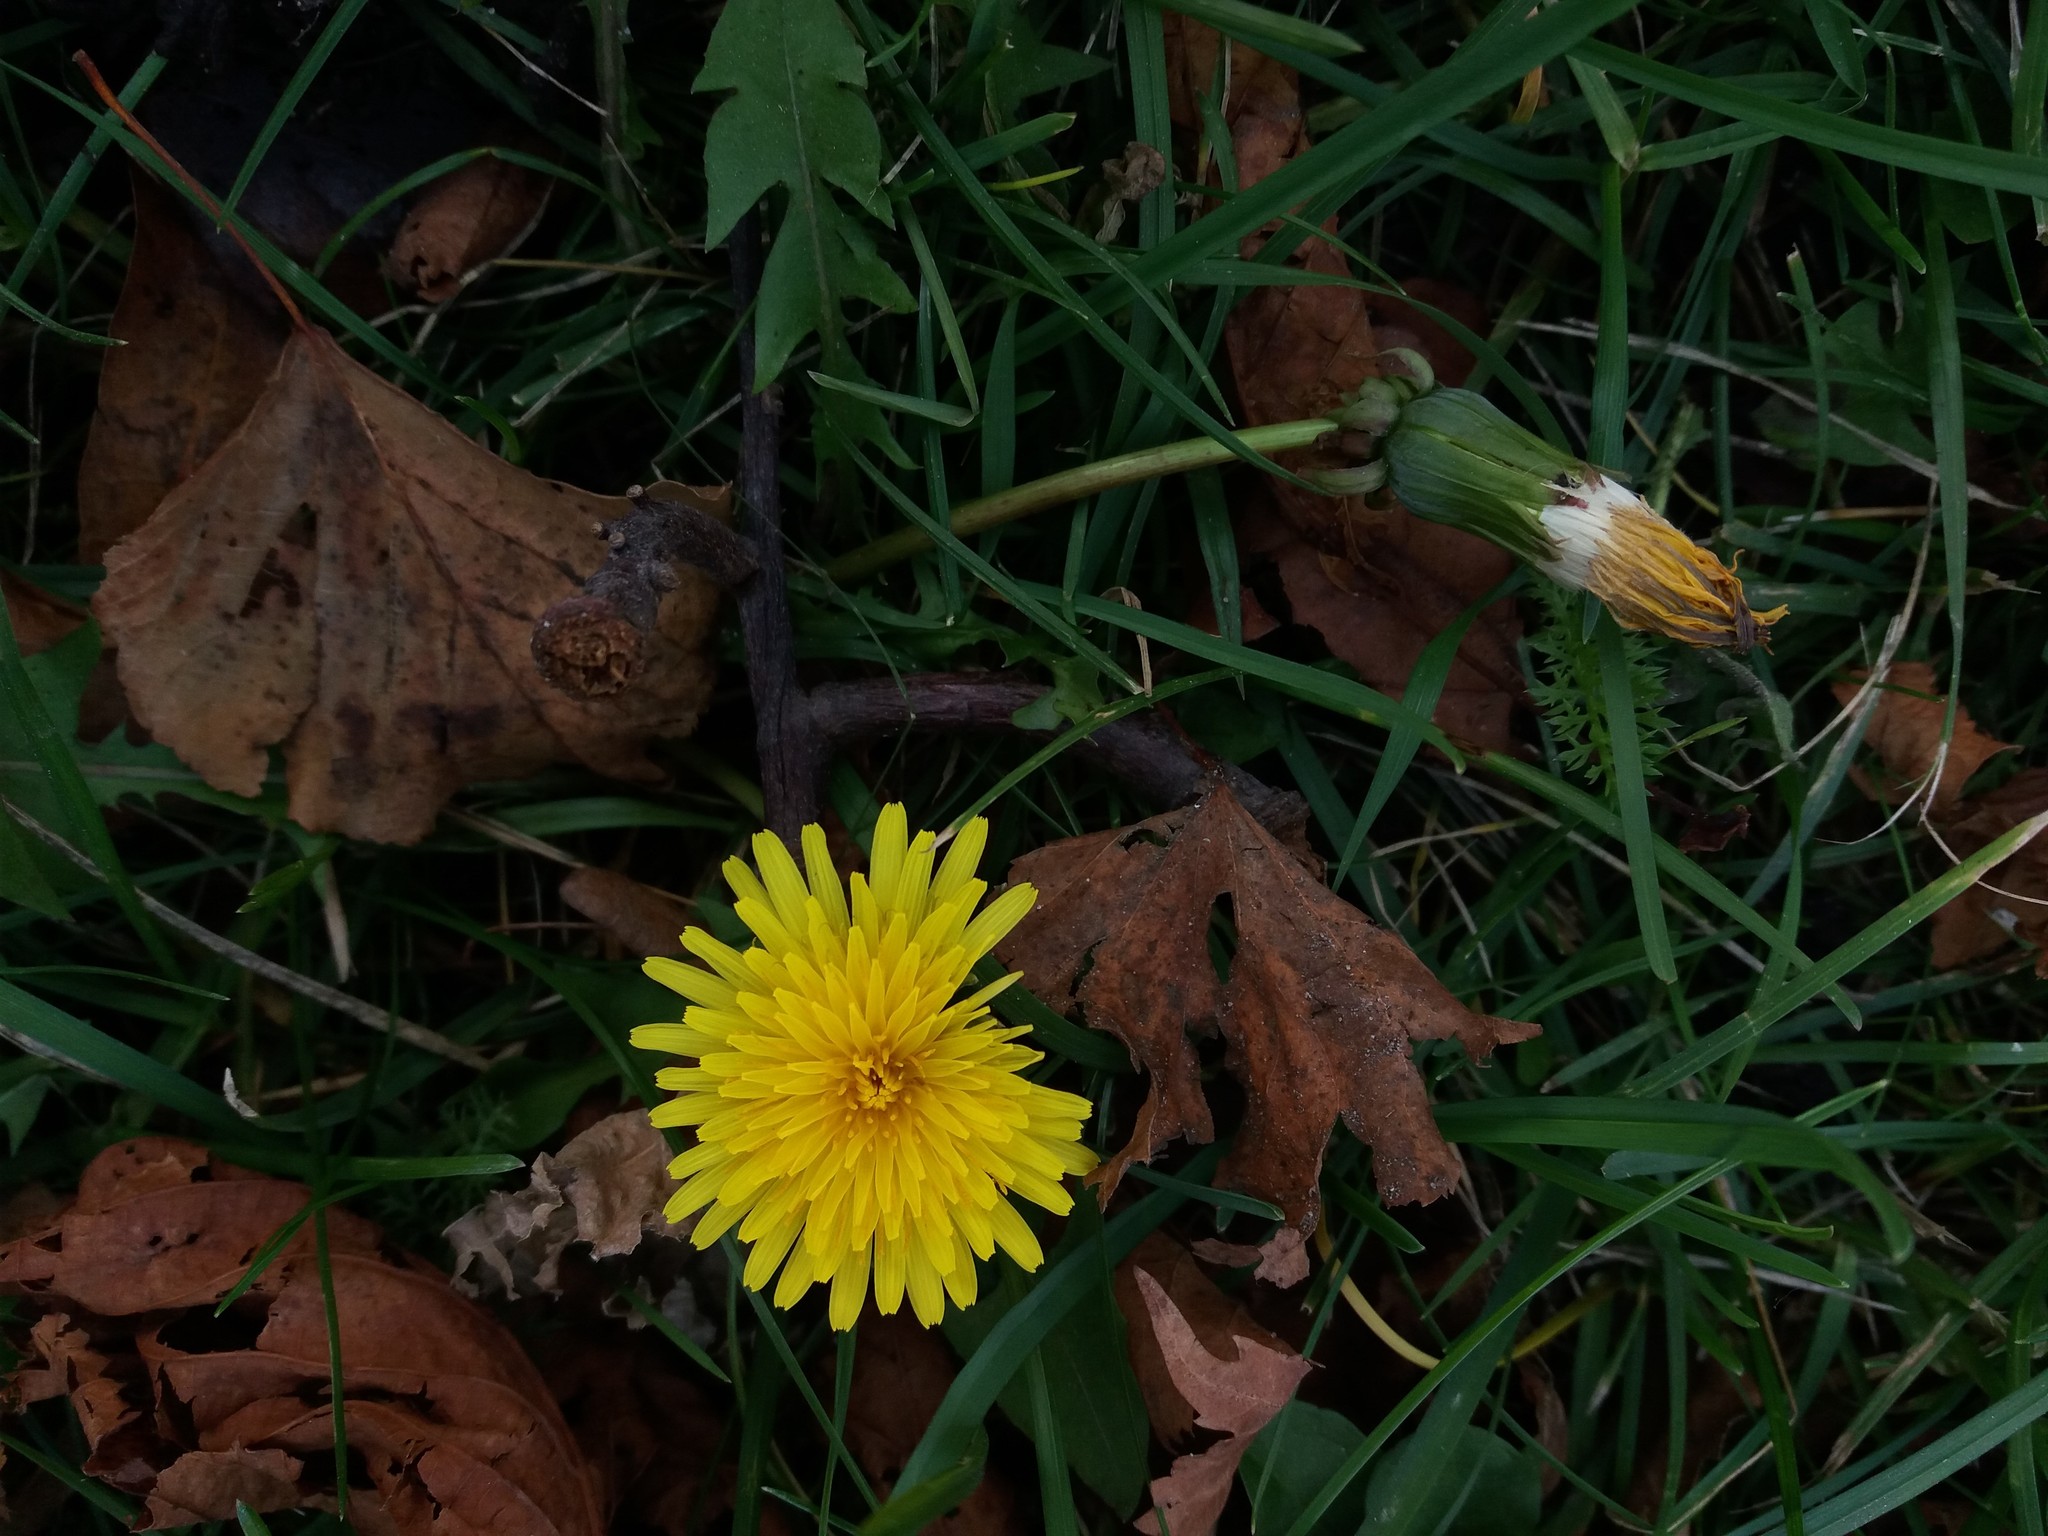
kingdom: Plantae
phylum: Tracheophyta
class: Magnoliopsida
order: Asterales
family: Asteraceae
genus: Taraxacum
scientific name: Taraxacum officinale
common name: Common dandelion
